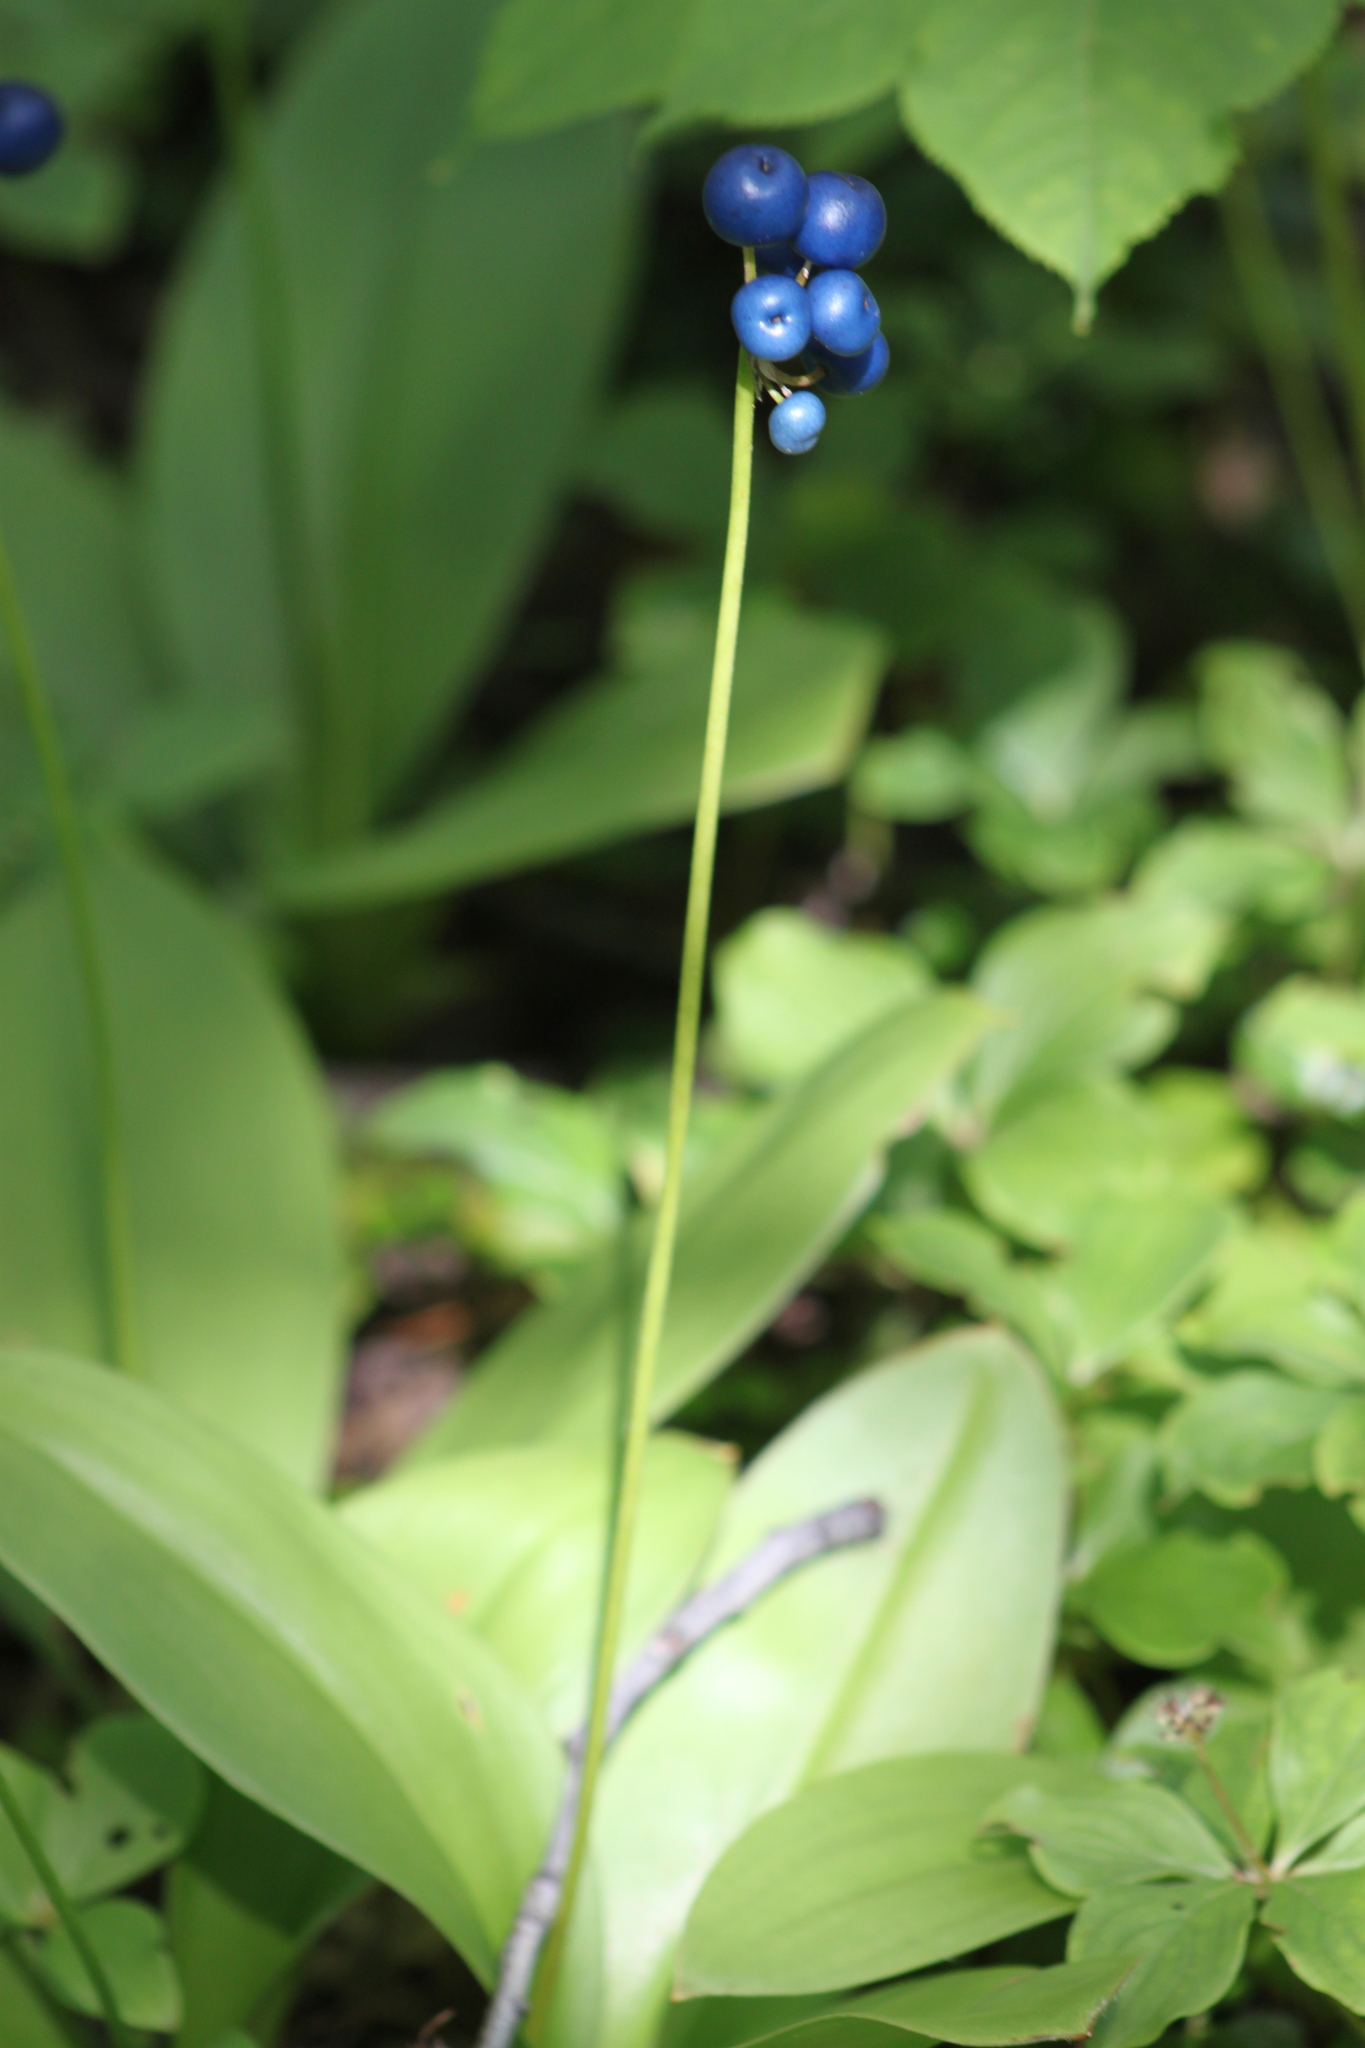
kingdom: Plantae
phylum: Tracheophyta
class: Liliopsida
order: Liliales
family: Liliaceae
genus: Clintonia
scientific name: Clintonia borealis
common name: Yellow clintonia
